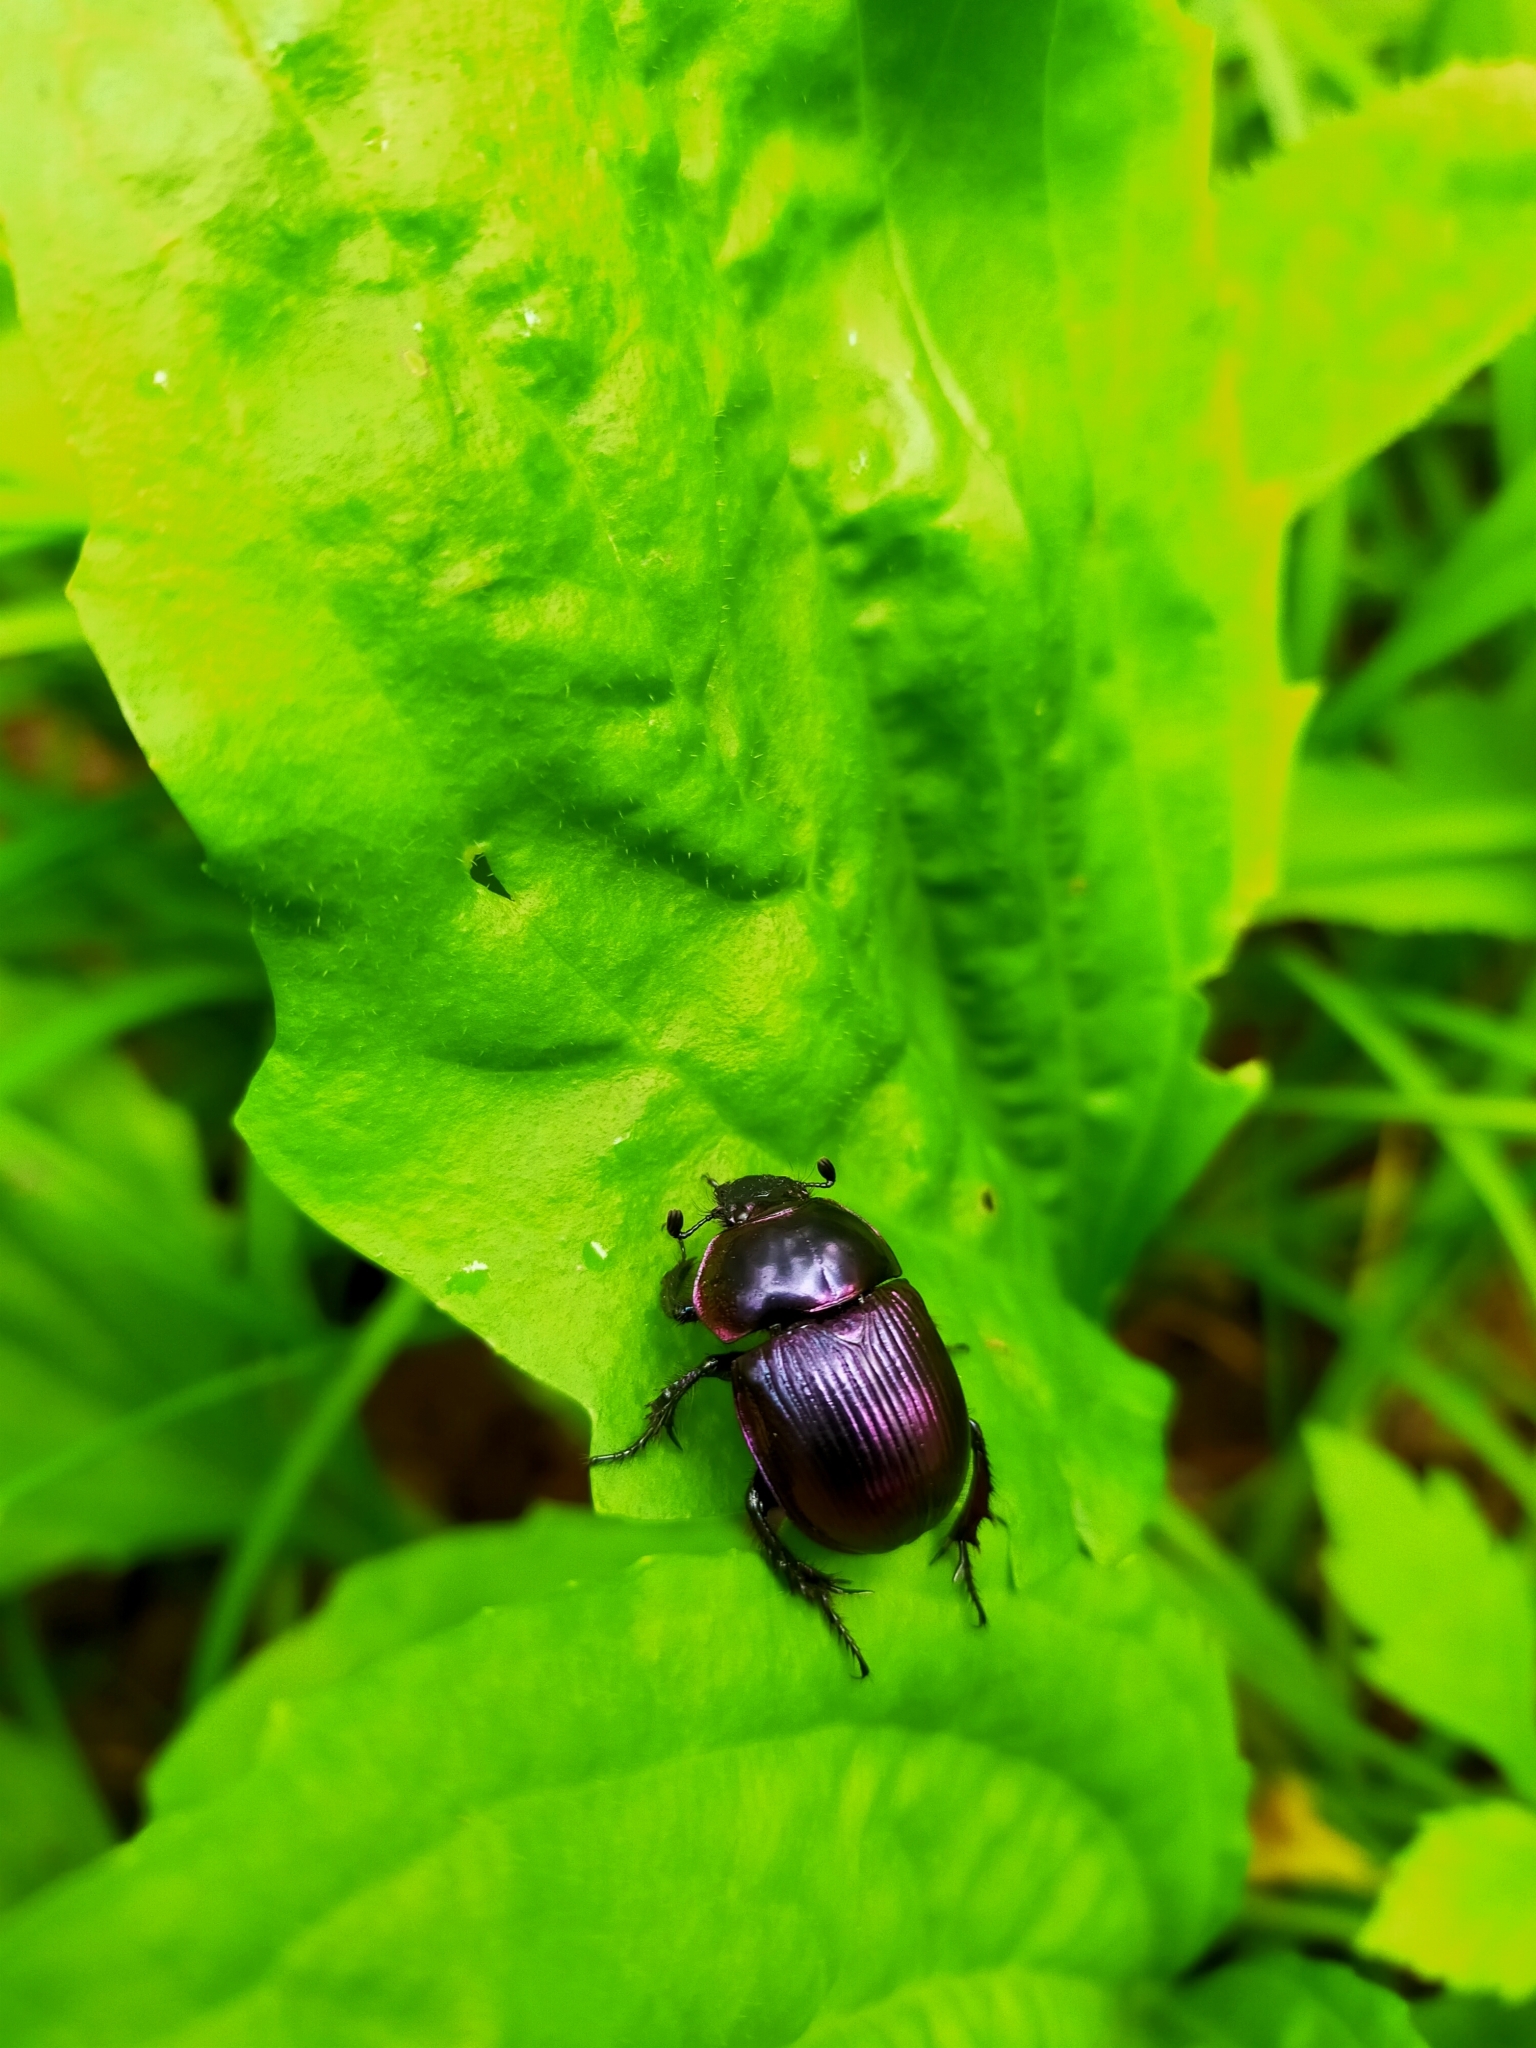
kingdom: Animalia
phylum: Arthropoda
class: Insecta
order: Coleoptera
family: Geotrupidae
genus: Phelotrupes
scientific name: Phelotrupes auratus
